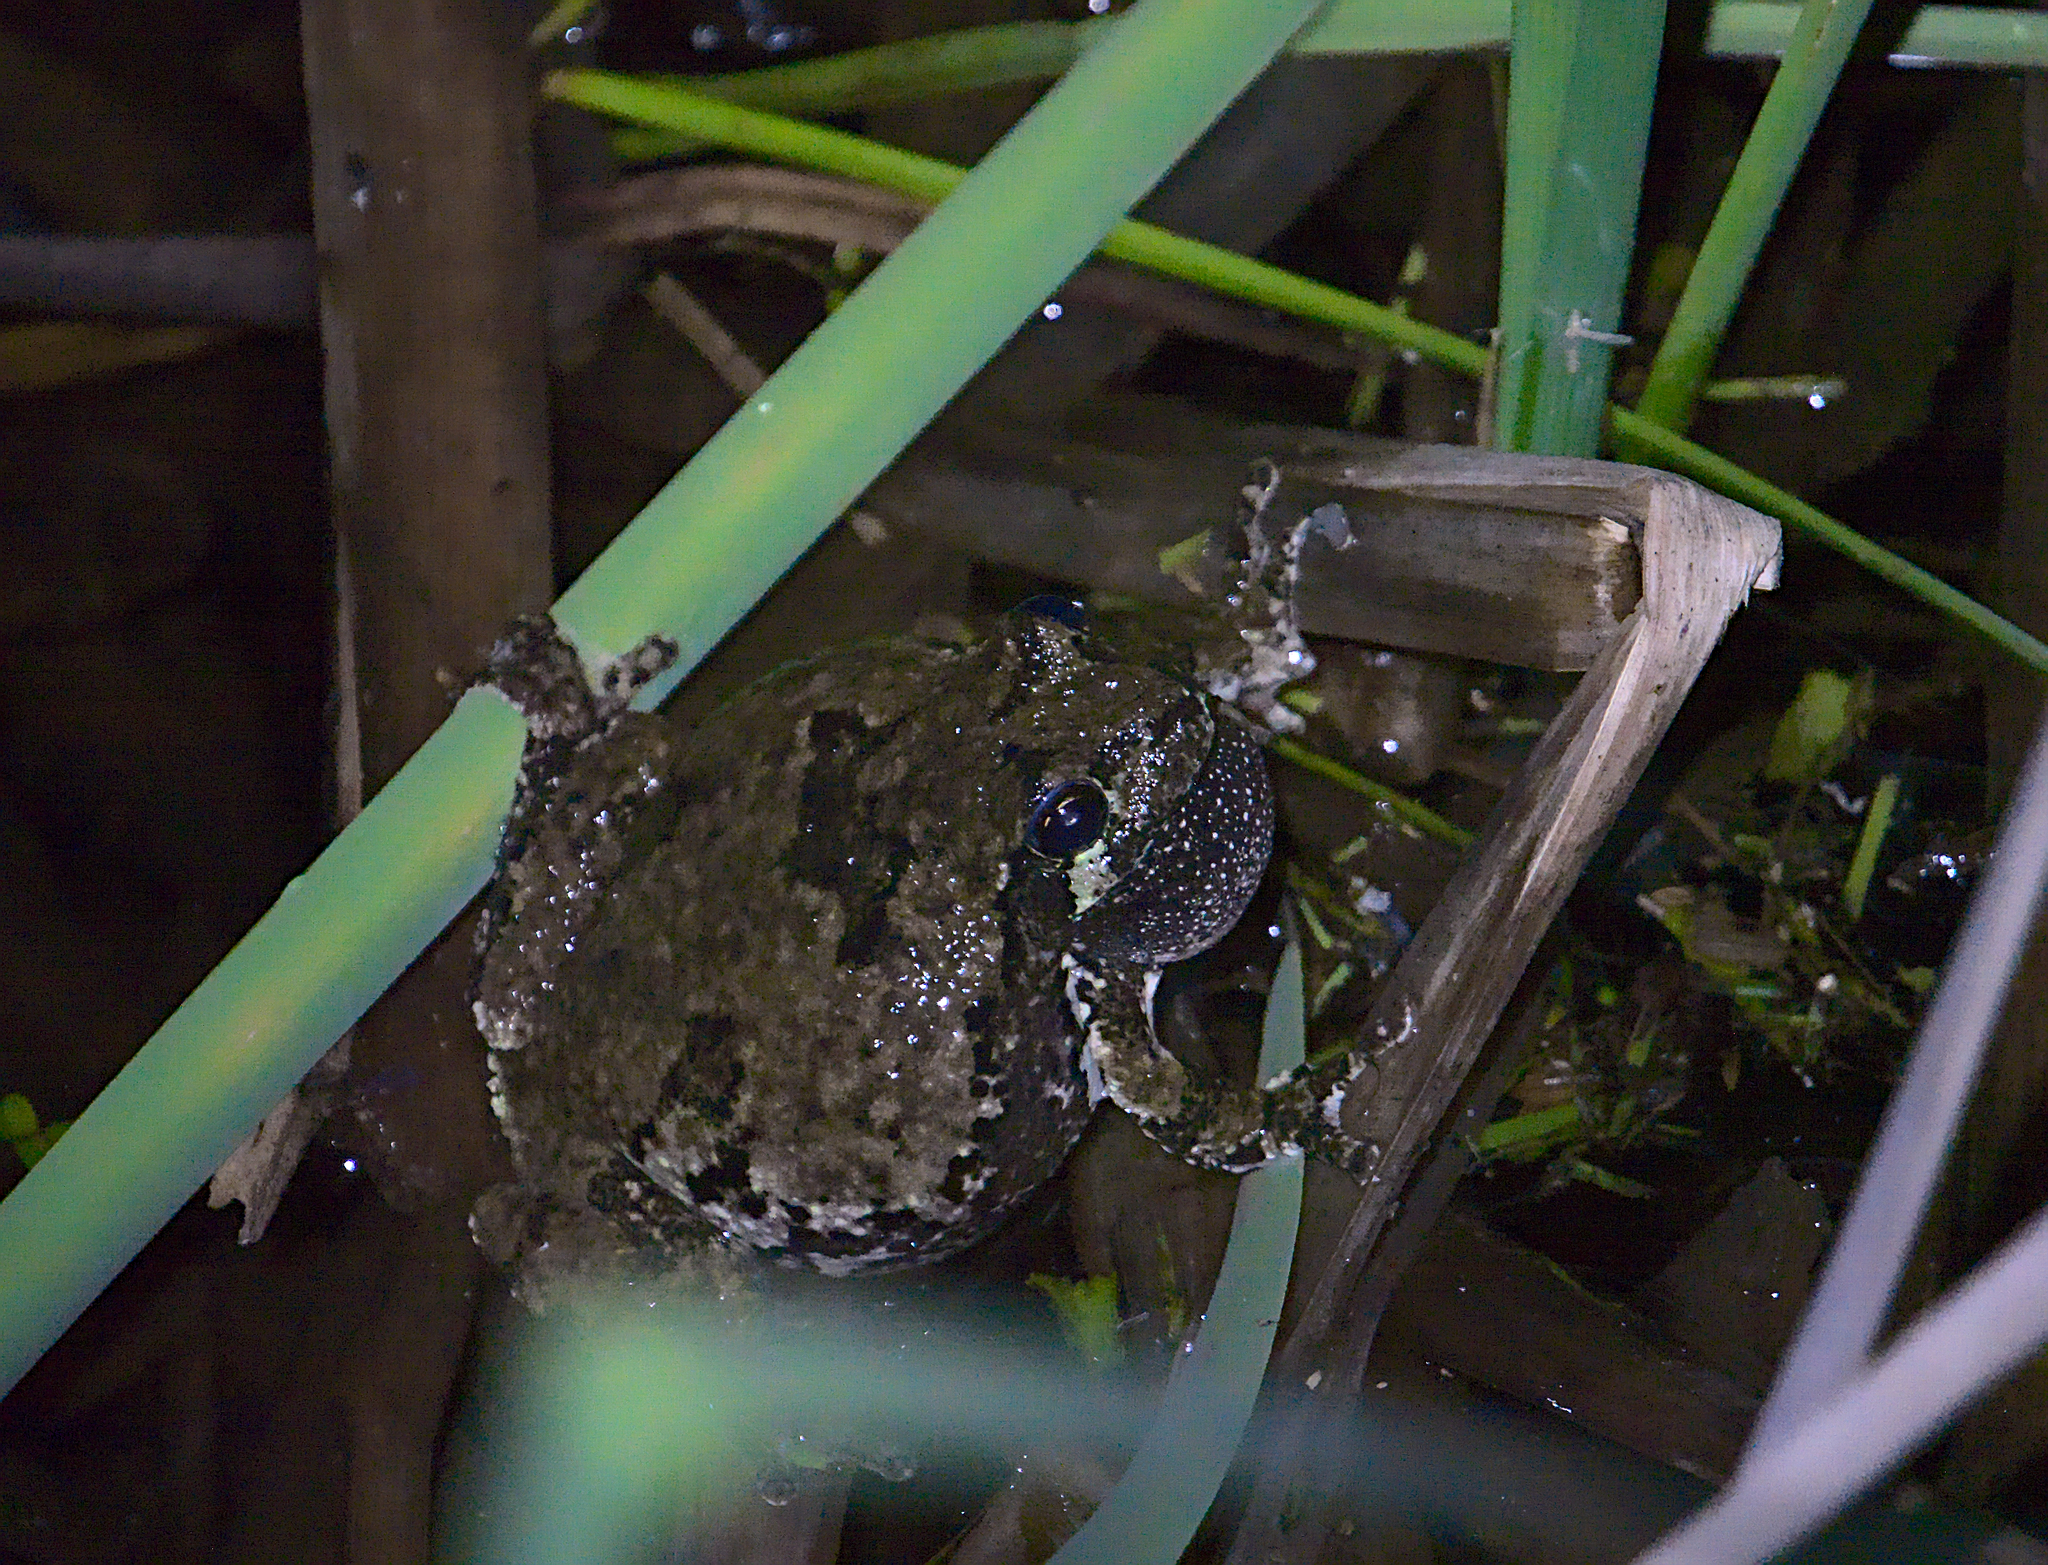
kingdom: Animalia
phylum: Chordata
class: Amphibia
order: Anura
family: Hylidae
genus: Dryophytes
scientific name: Dryophytes versicolor
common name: Gray treefrog
